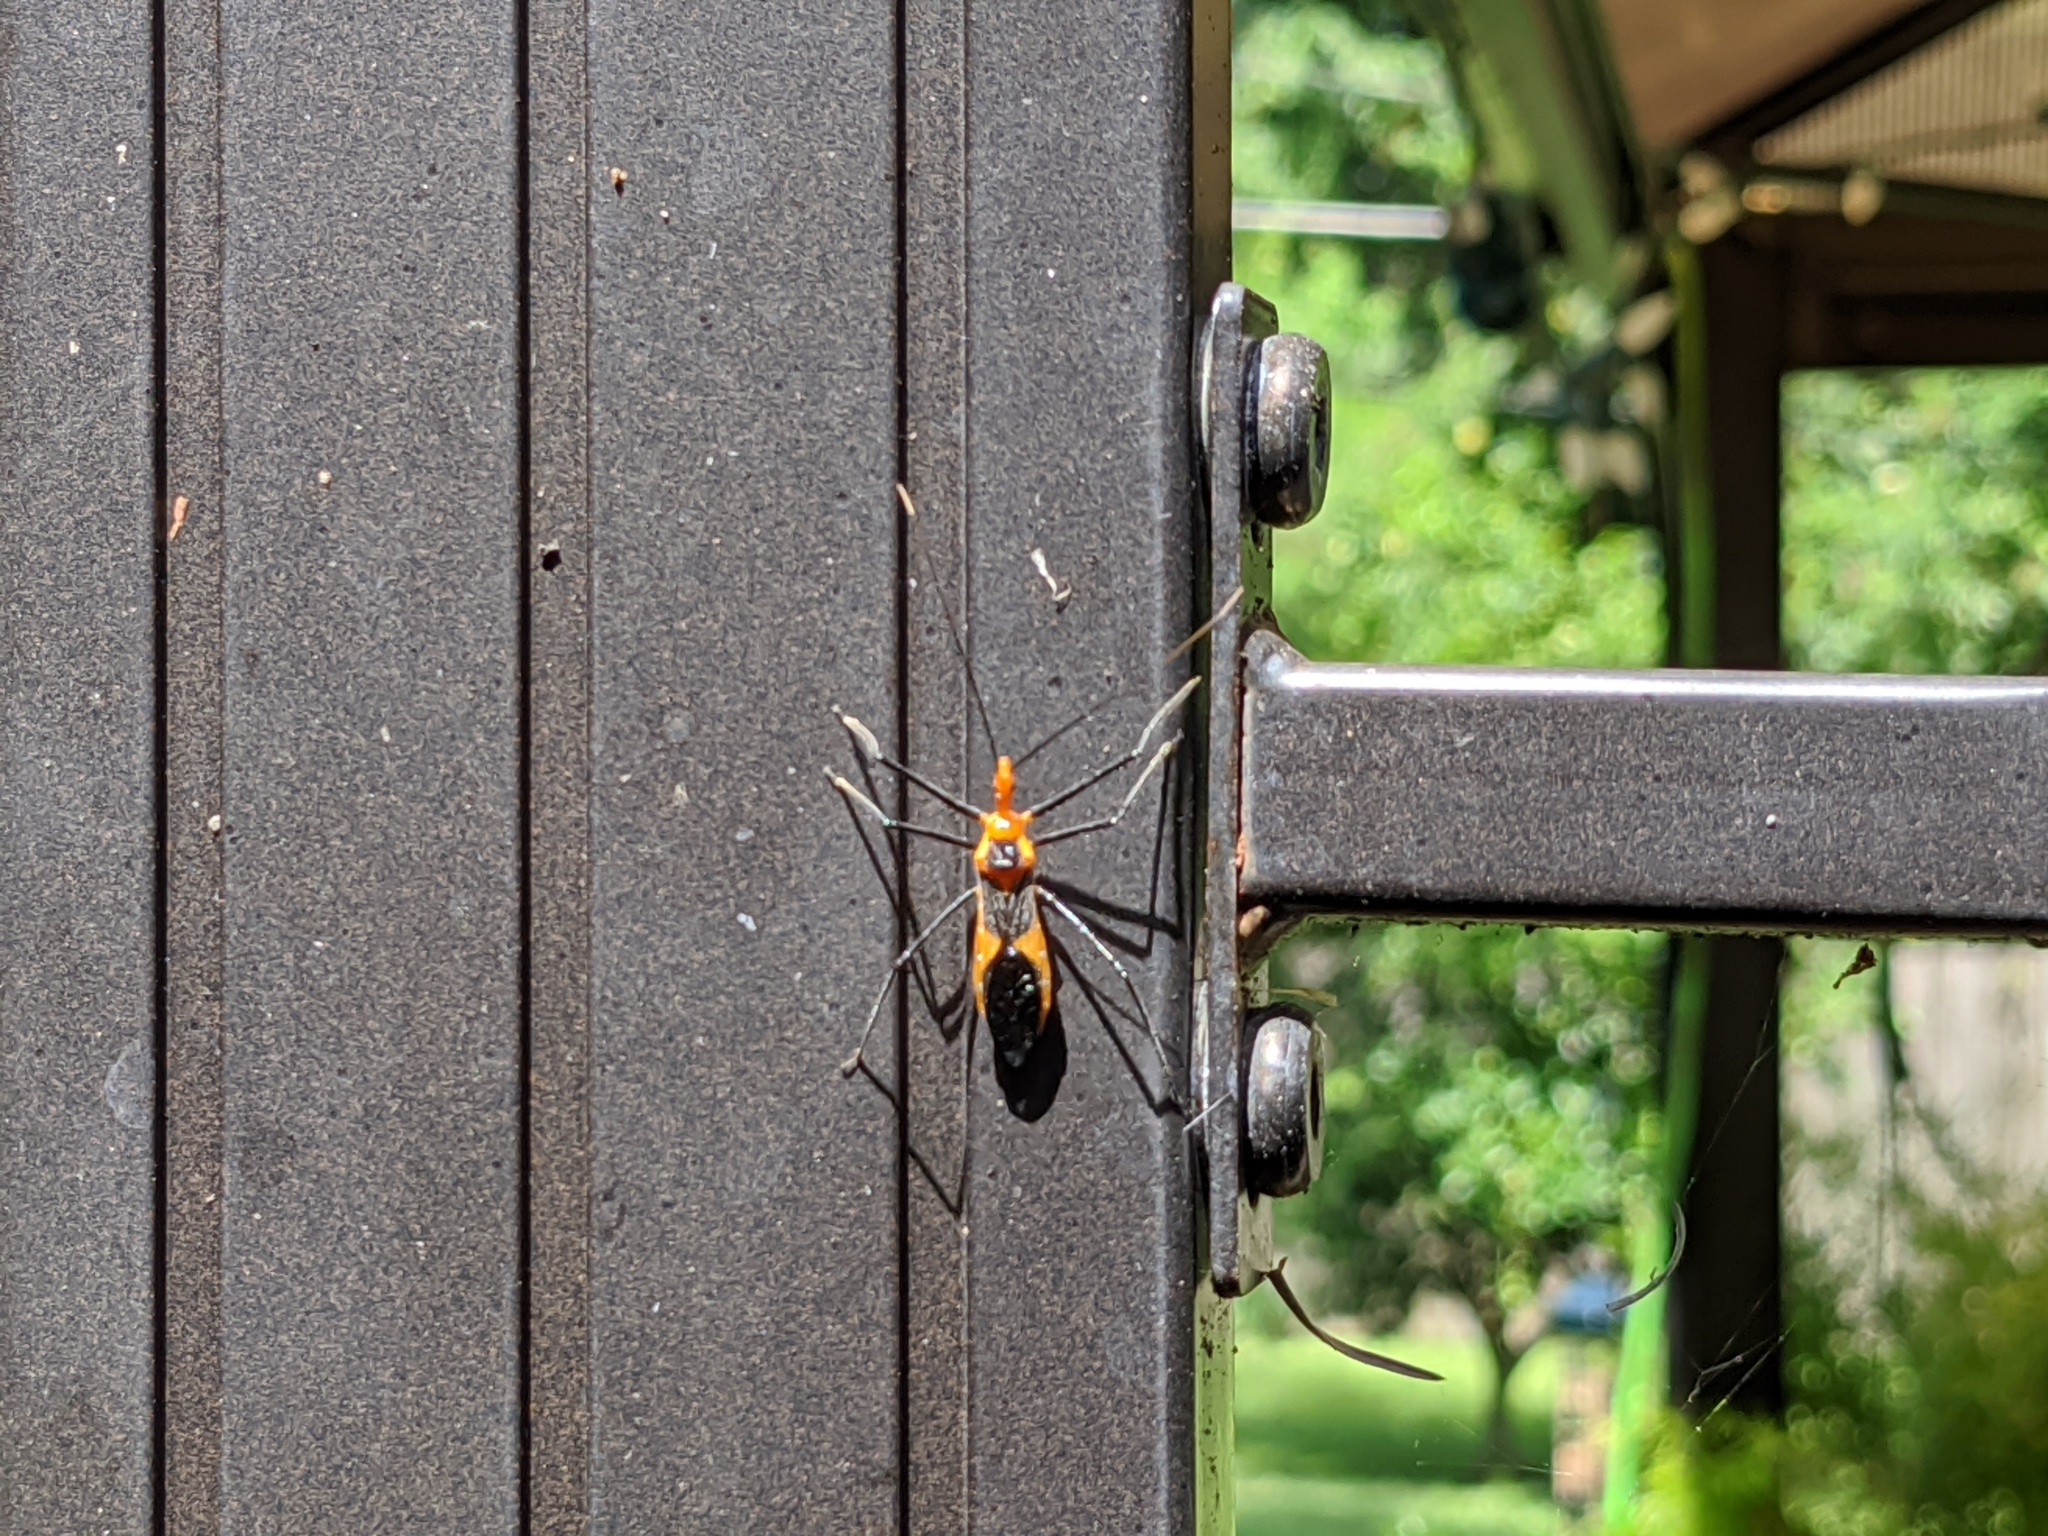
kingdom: Animalia
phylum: Arthropoda
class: Insecta
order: Hemiptera
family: Reduviidae
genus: Zelus
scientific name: Zelus longipes
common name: Milkweed assassin bug
